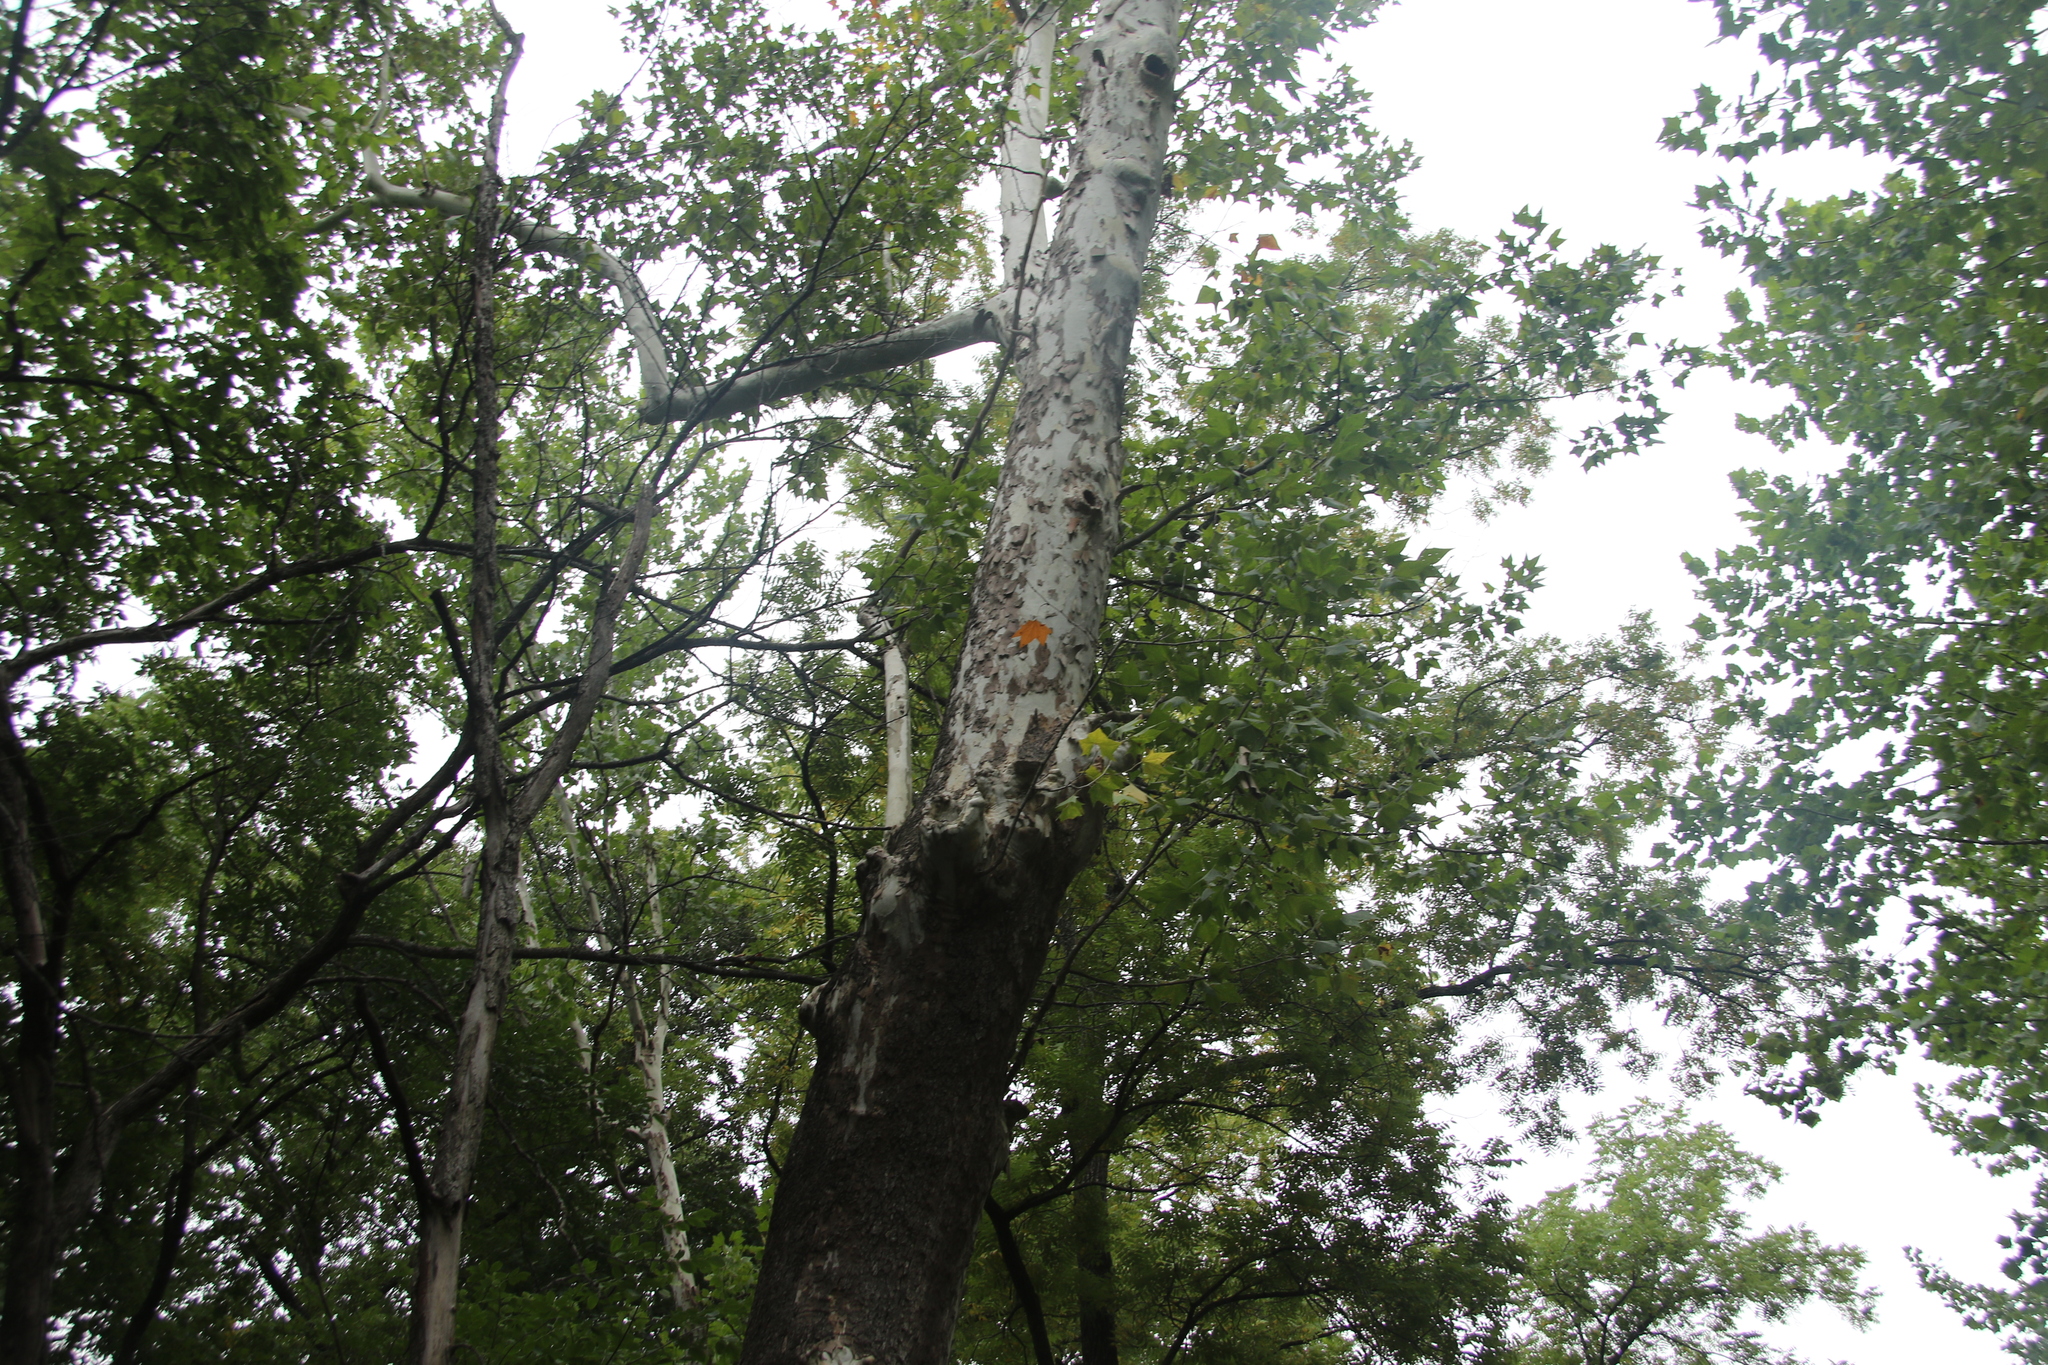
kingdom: Plantae
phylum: Tracheophyta
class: Magnoliopsida
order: Proteales
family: Platanaceae
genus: Platanus
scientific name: Platanus occidentalis
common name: American sycamore
